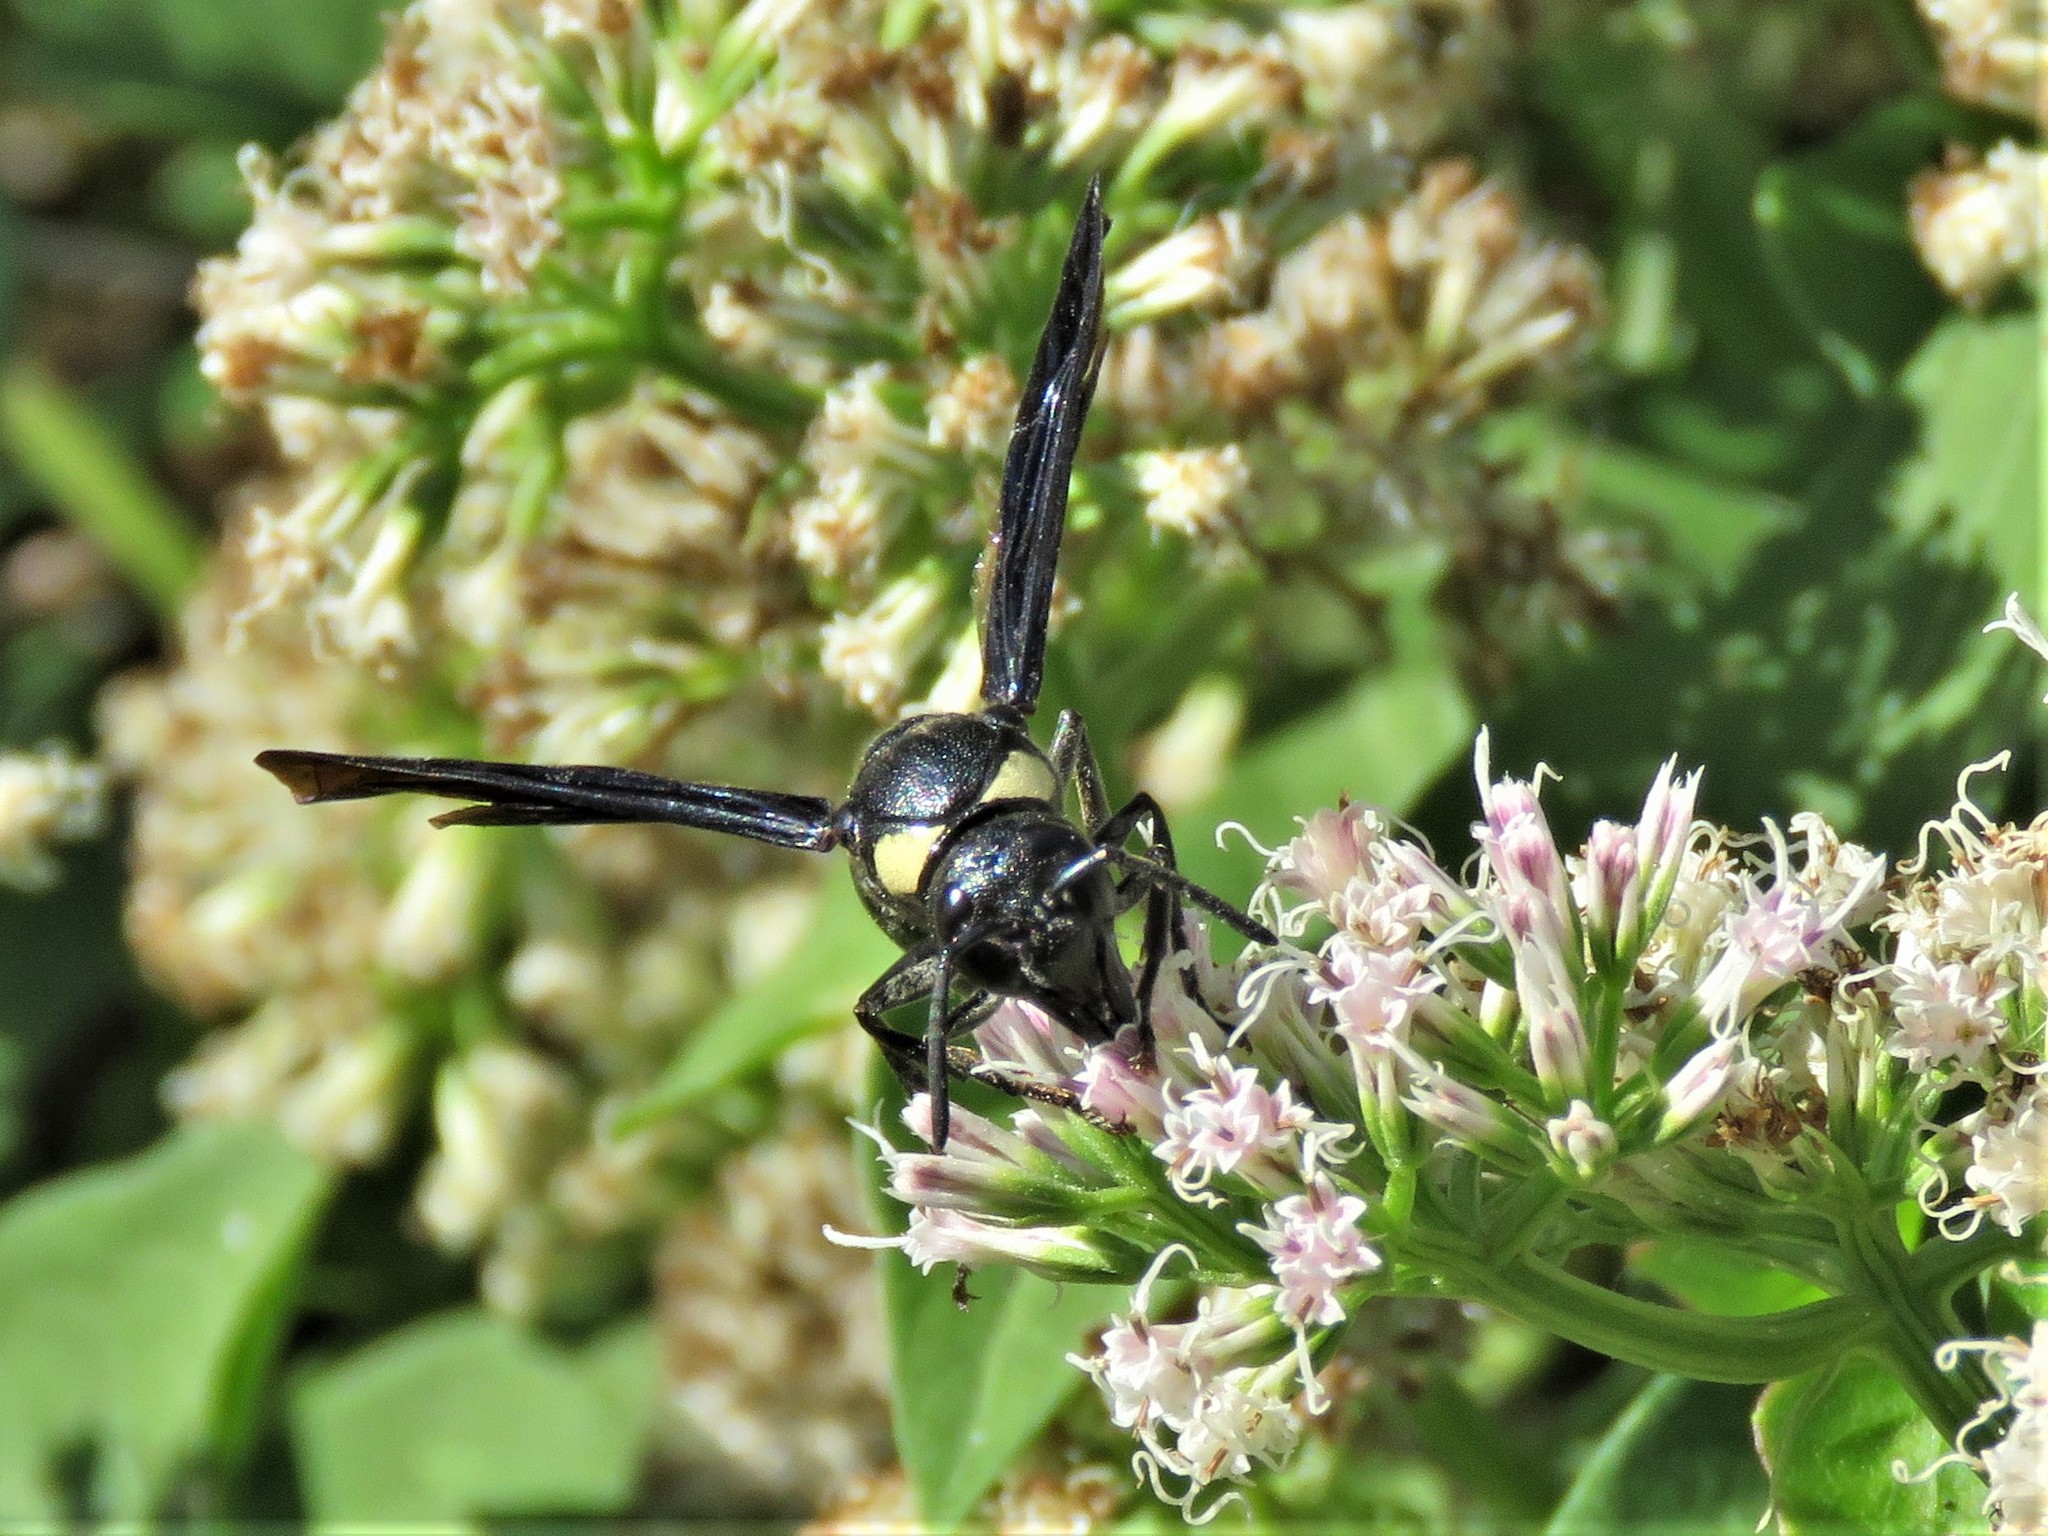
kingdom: Animalia
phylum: Arthropoda
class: Insecta
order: Hymenoptera
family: Eumenidae
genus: Monobia
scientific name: Monobia quadridens
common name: Four-toothed mason wasp
